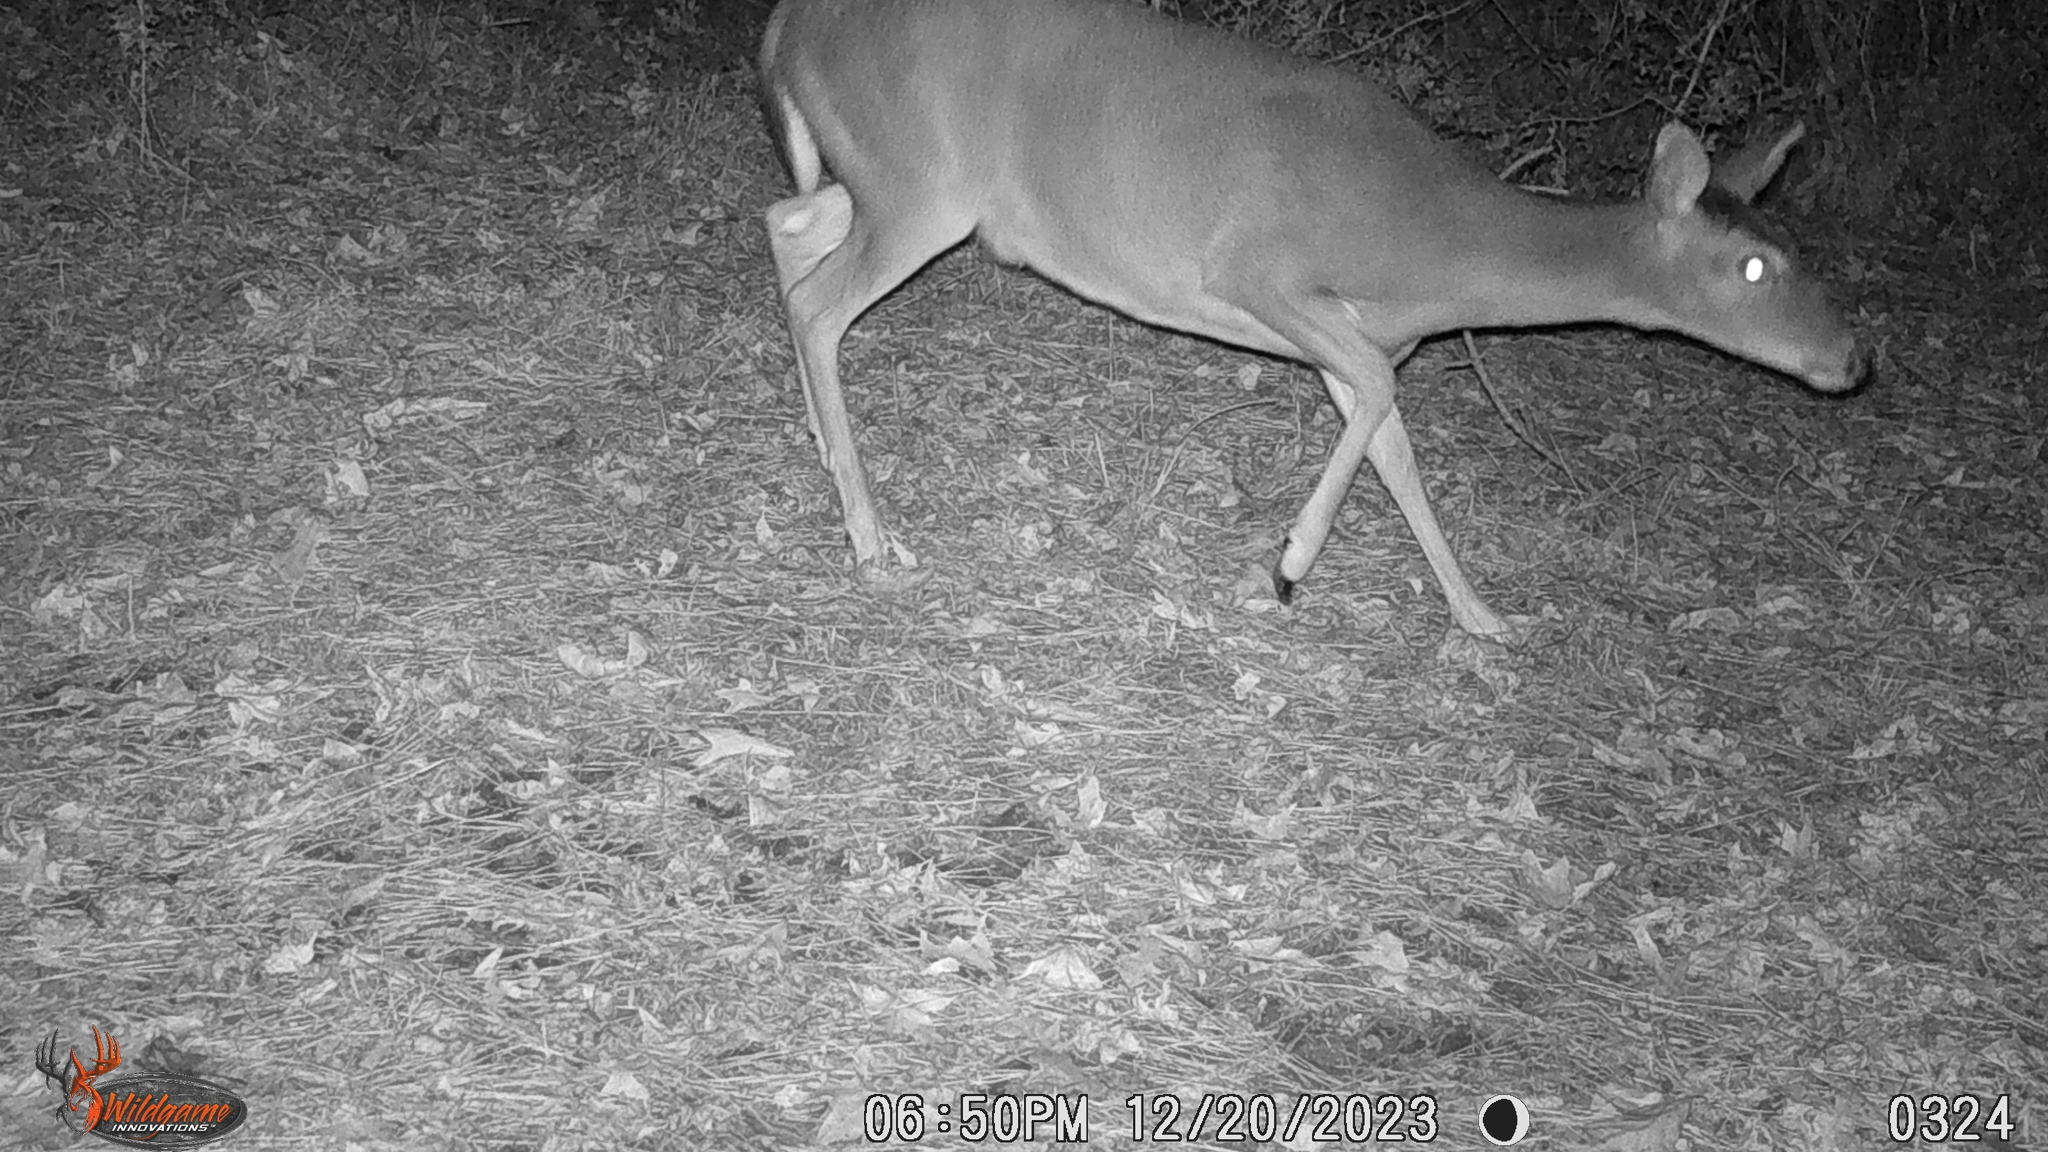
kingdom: Animalia
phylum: Chordata
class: Mammalia
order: Artiodactyla
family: Cervidae
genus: Odocoileus
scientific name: Odocoileus virginianus
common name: White-tailed deer
